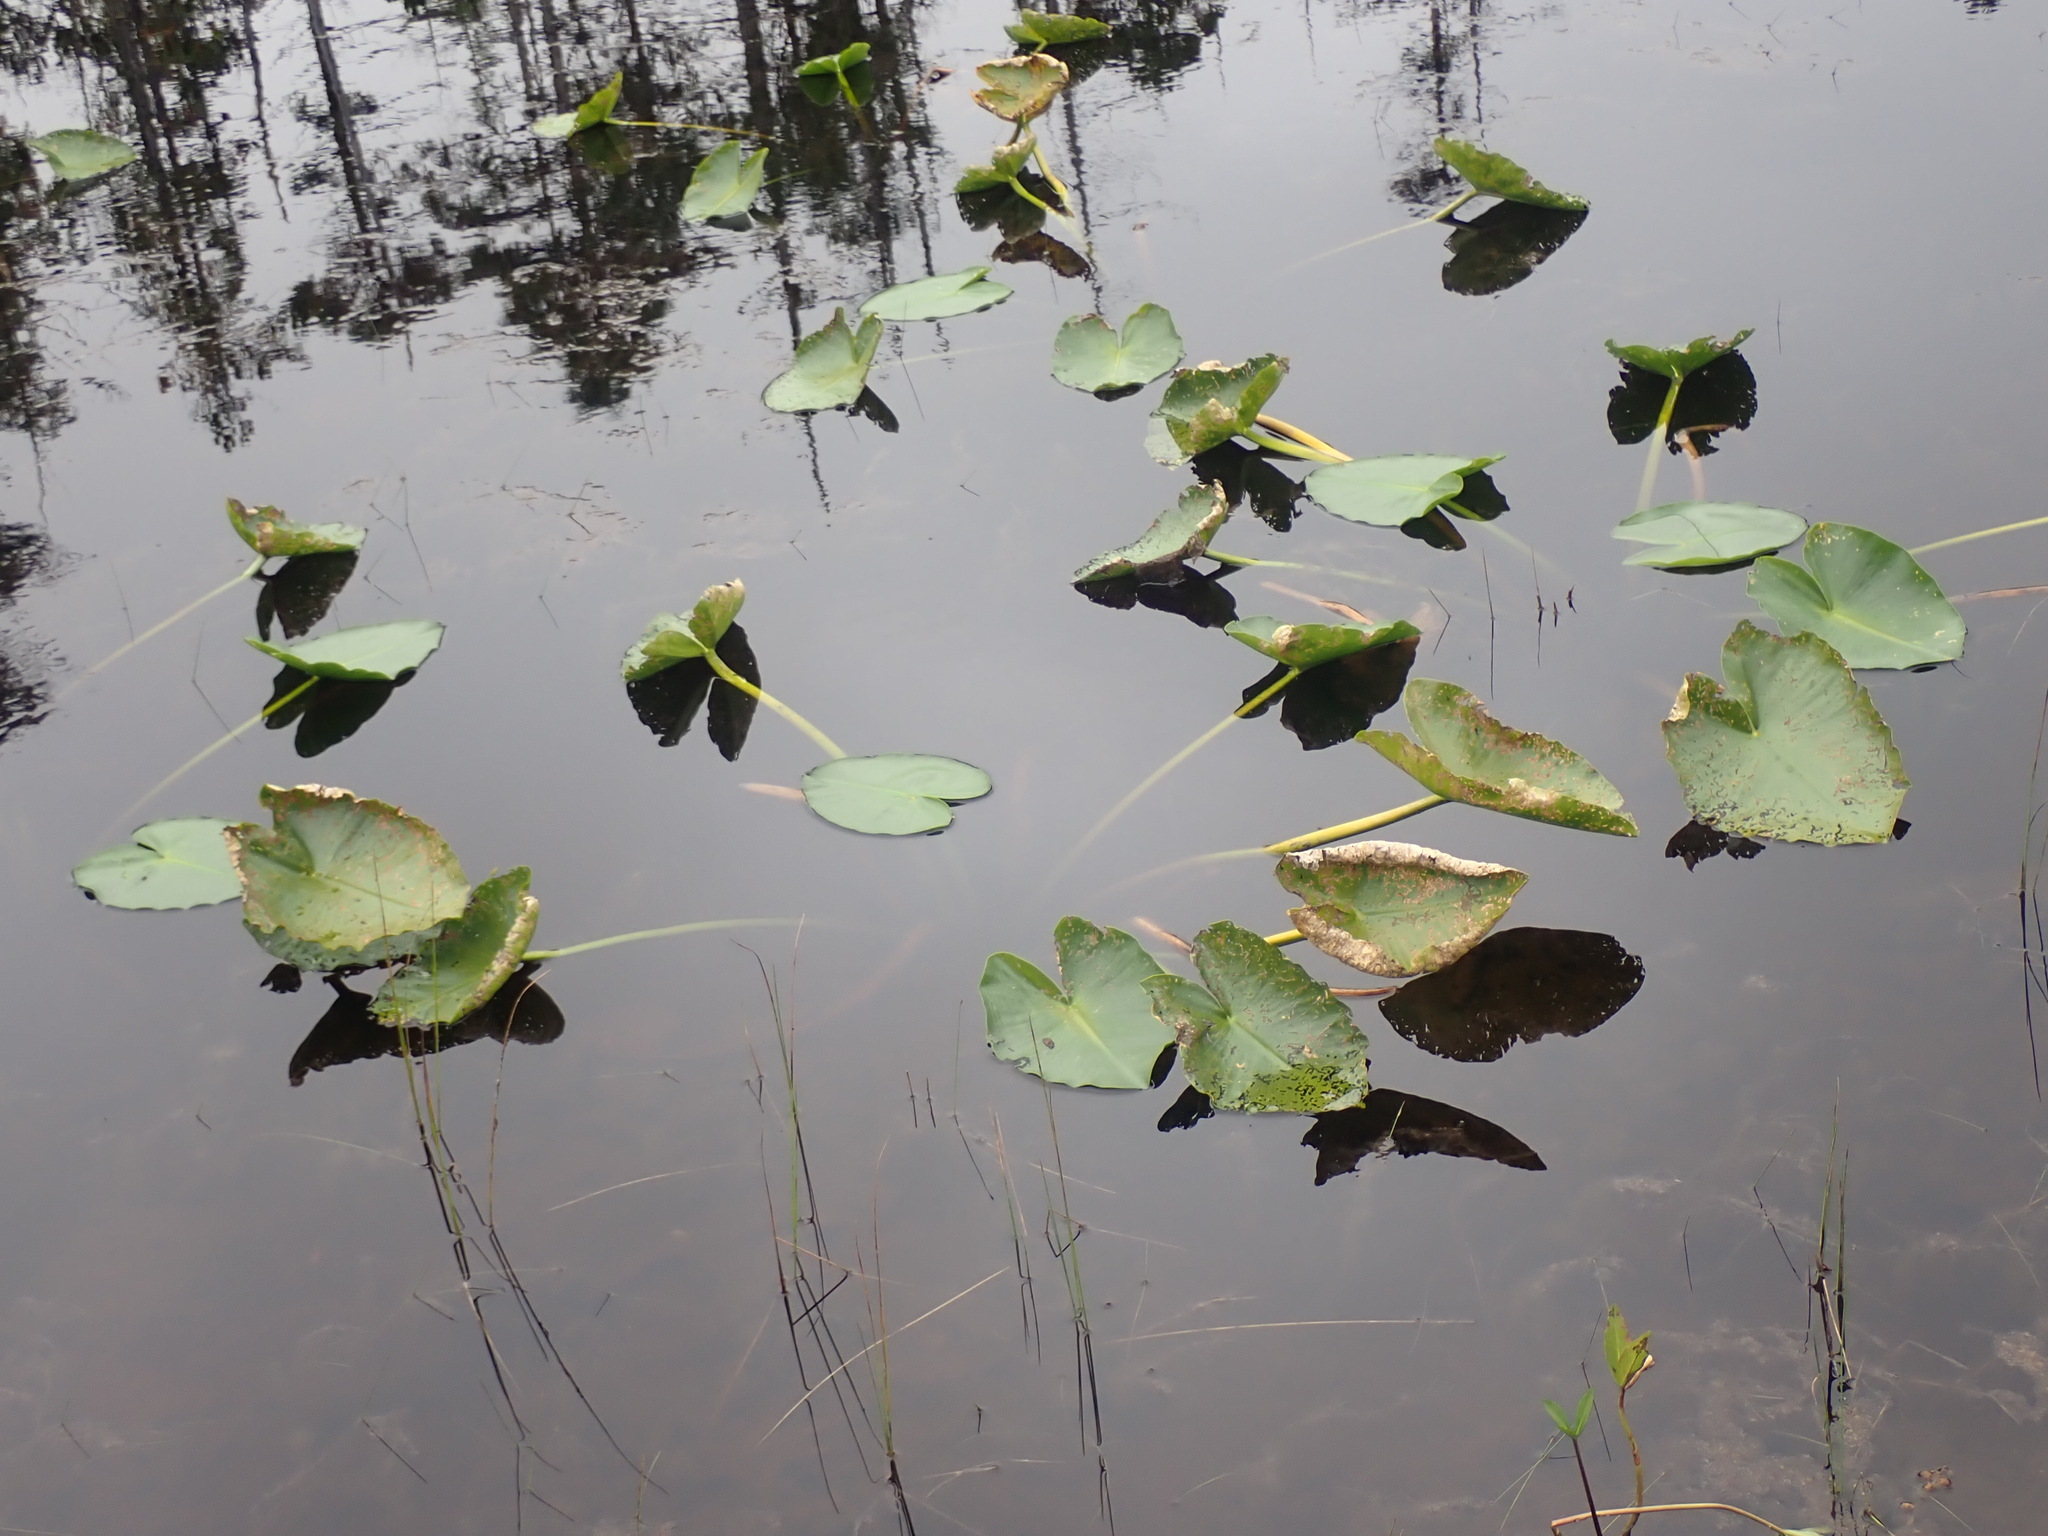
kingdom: Plantae
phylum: Tracheophyta
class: Magnoliopsida
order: Nymphaeales
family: Nymphaeaceae
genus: Nuphar
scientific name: Nuphar polysepala
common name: Rocky mountain cow-lily
